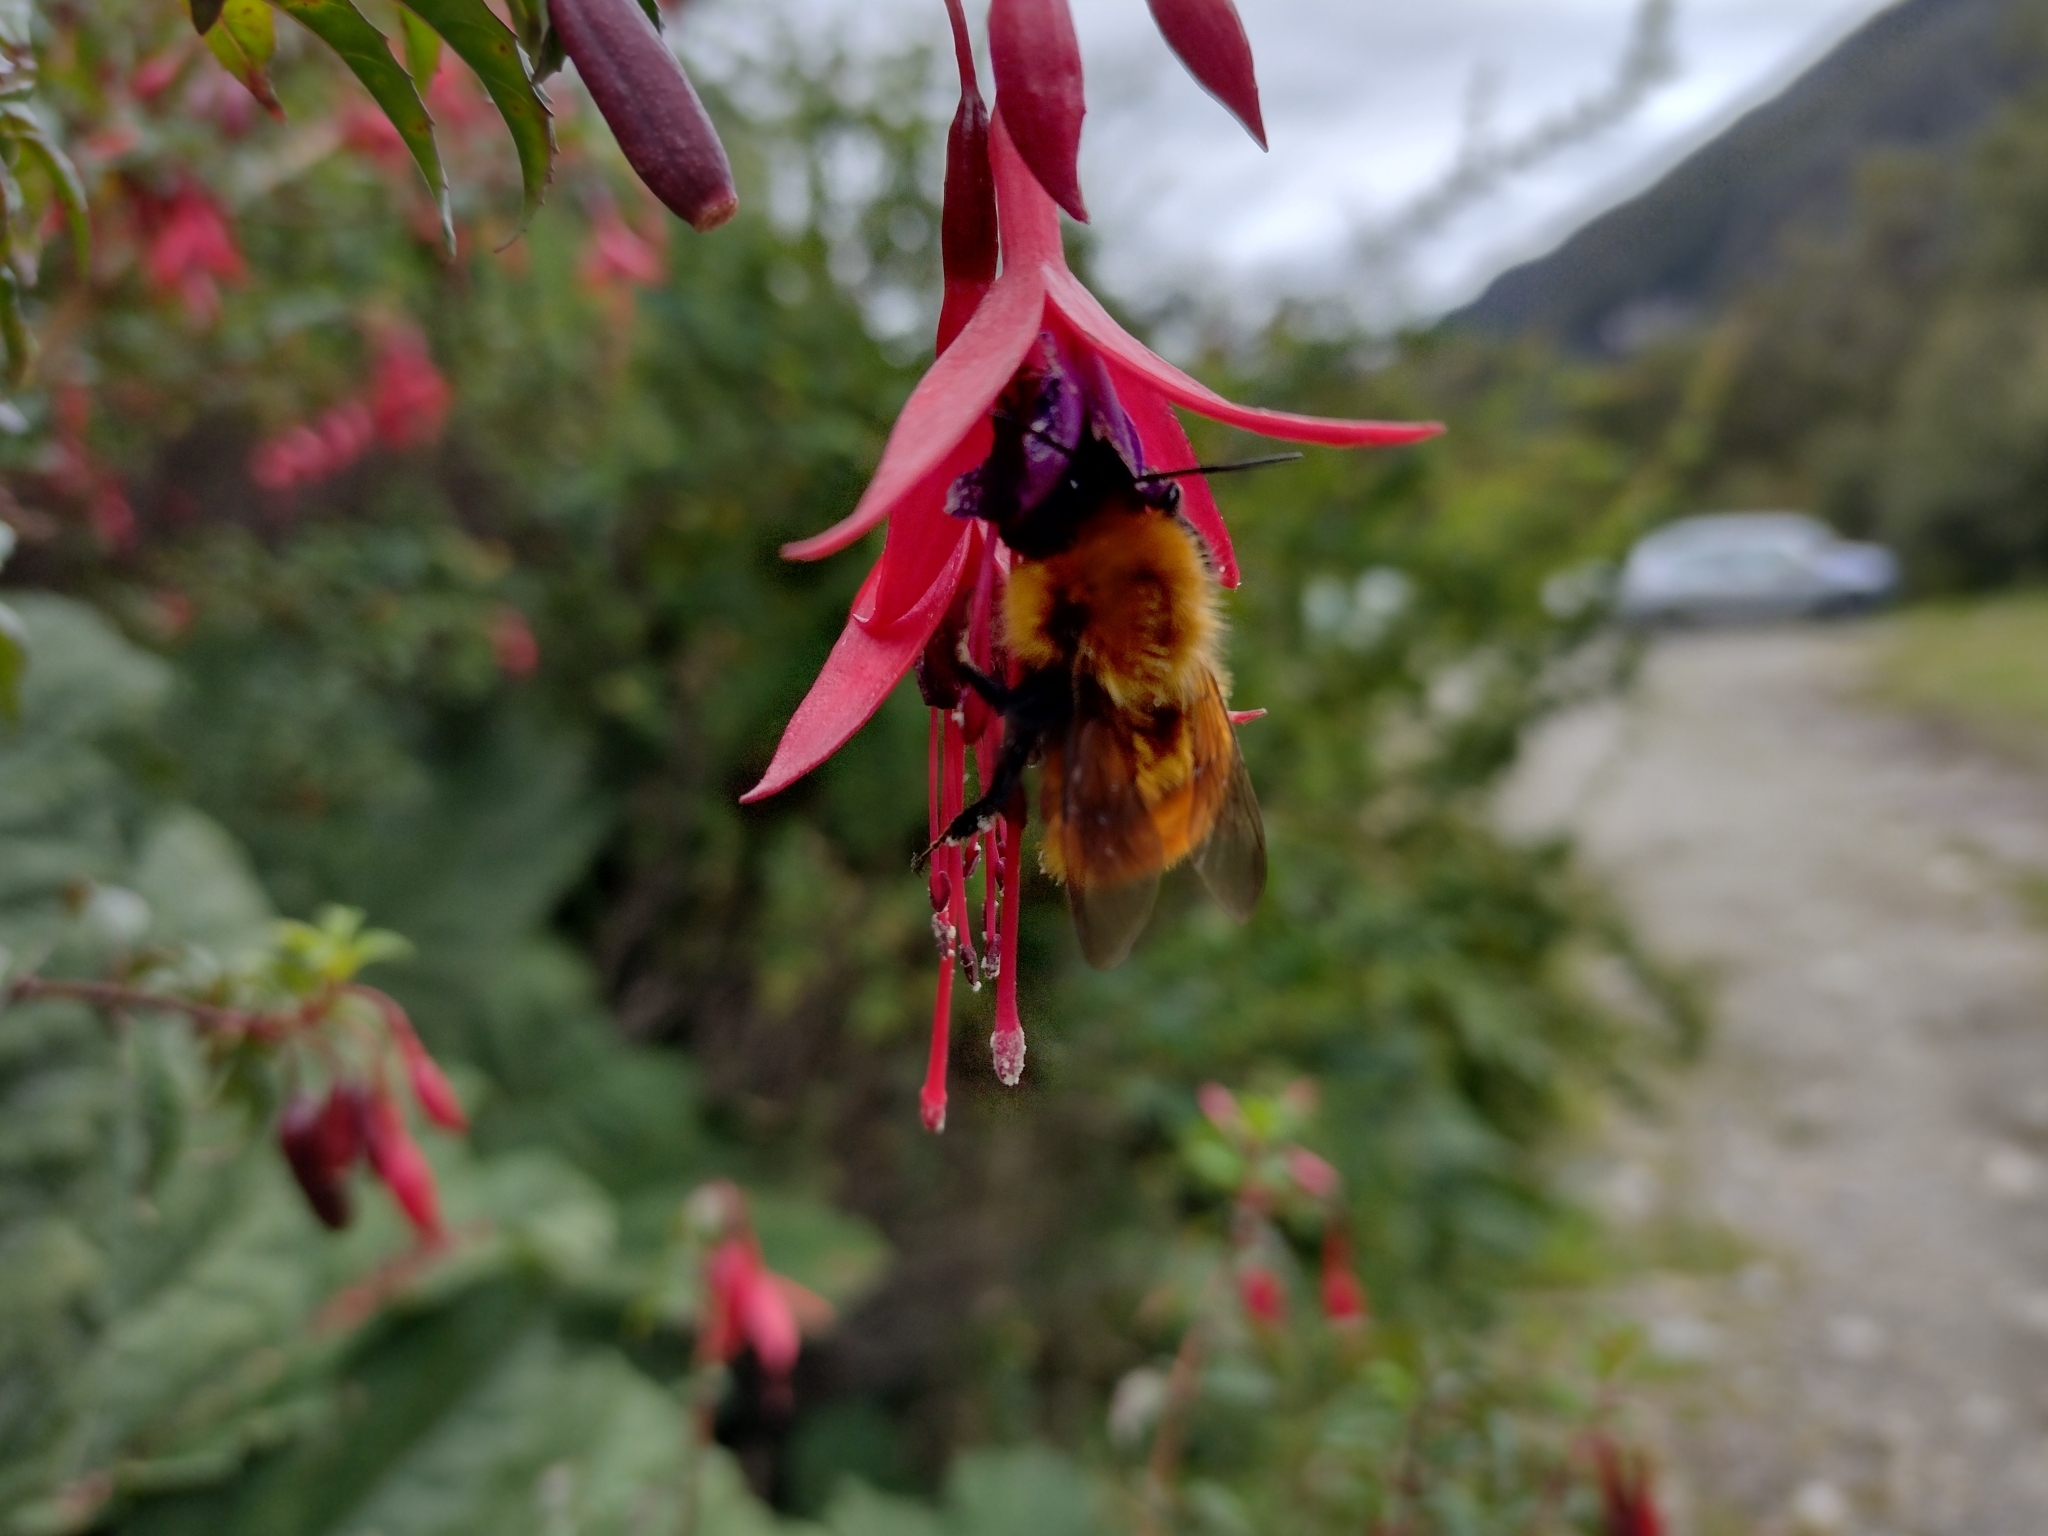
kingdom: Animalia
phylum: Arthropoda
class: Insecta
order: Hymenoptera
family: Apidae
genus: Bombus
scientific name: Bombus dahlbomii
